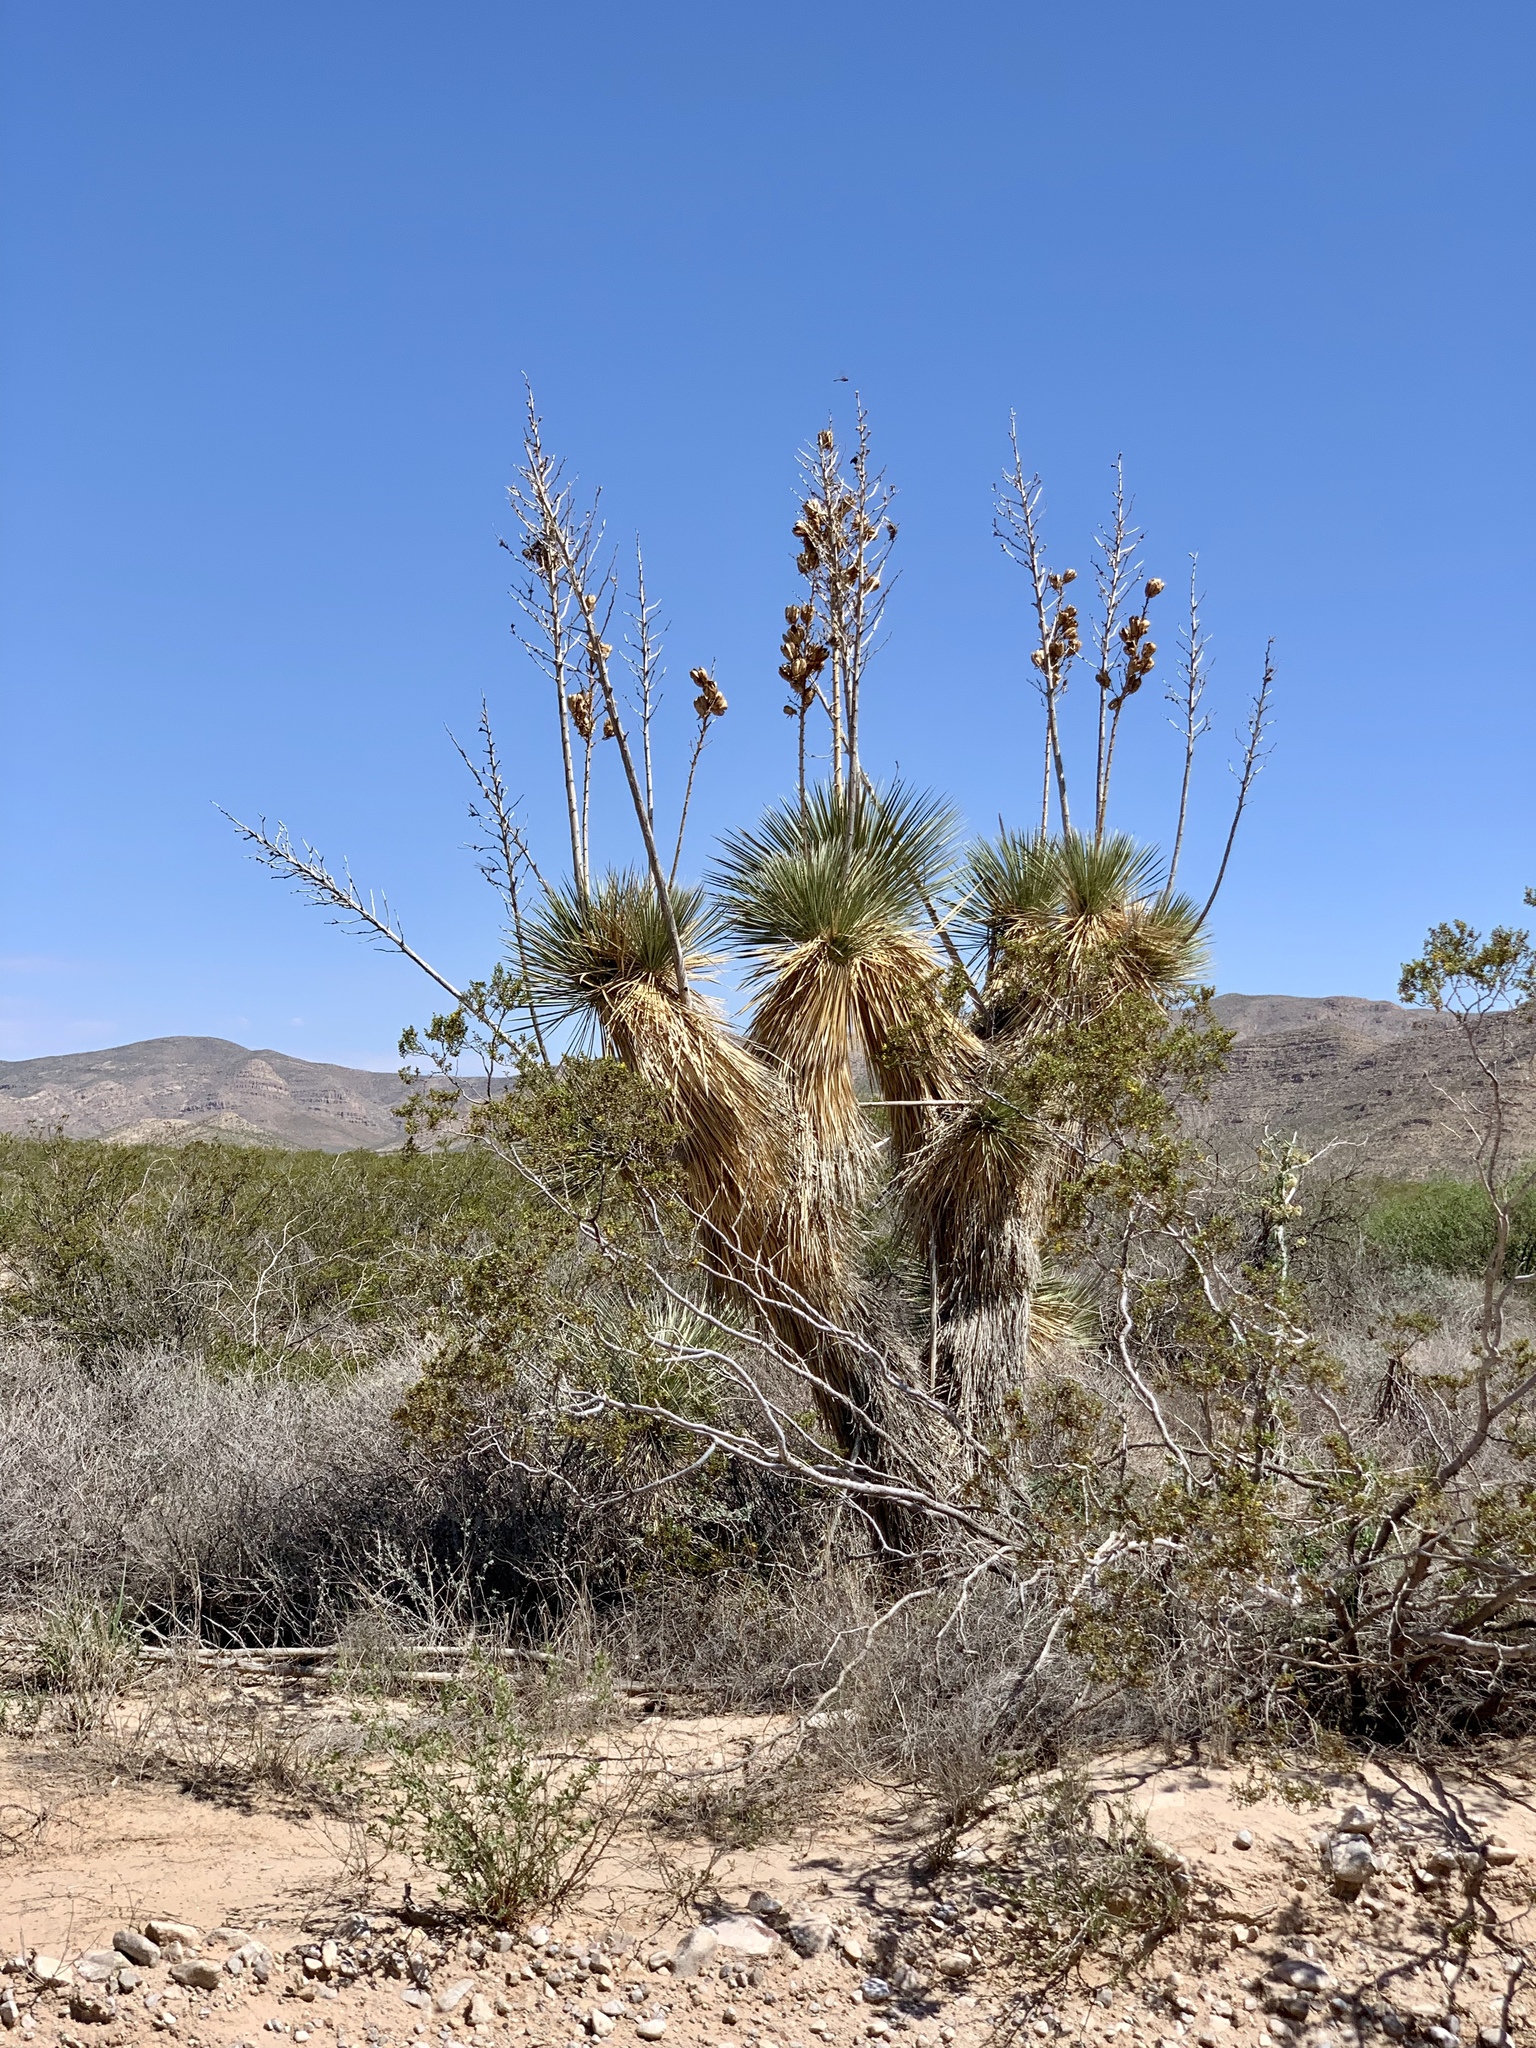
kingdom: Plantae
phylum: Tracheophyta
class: Liliopsida
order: Asparagales
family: Asparagaceae
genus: Yucca
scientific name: Yucca elata
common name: Palmella
